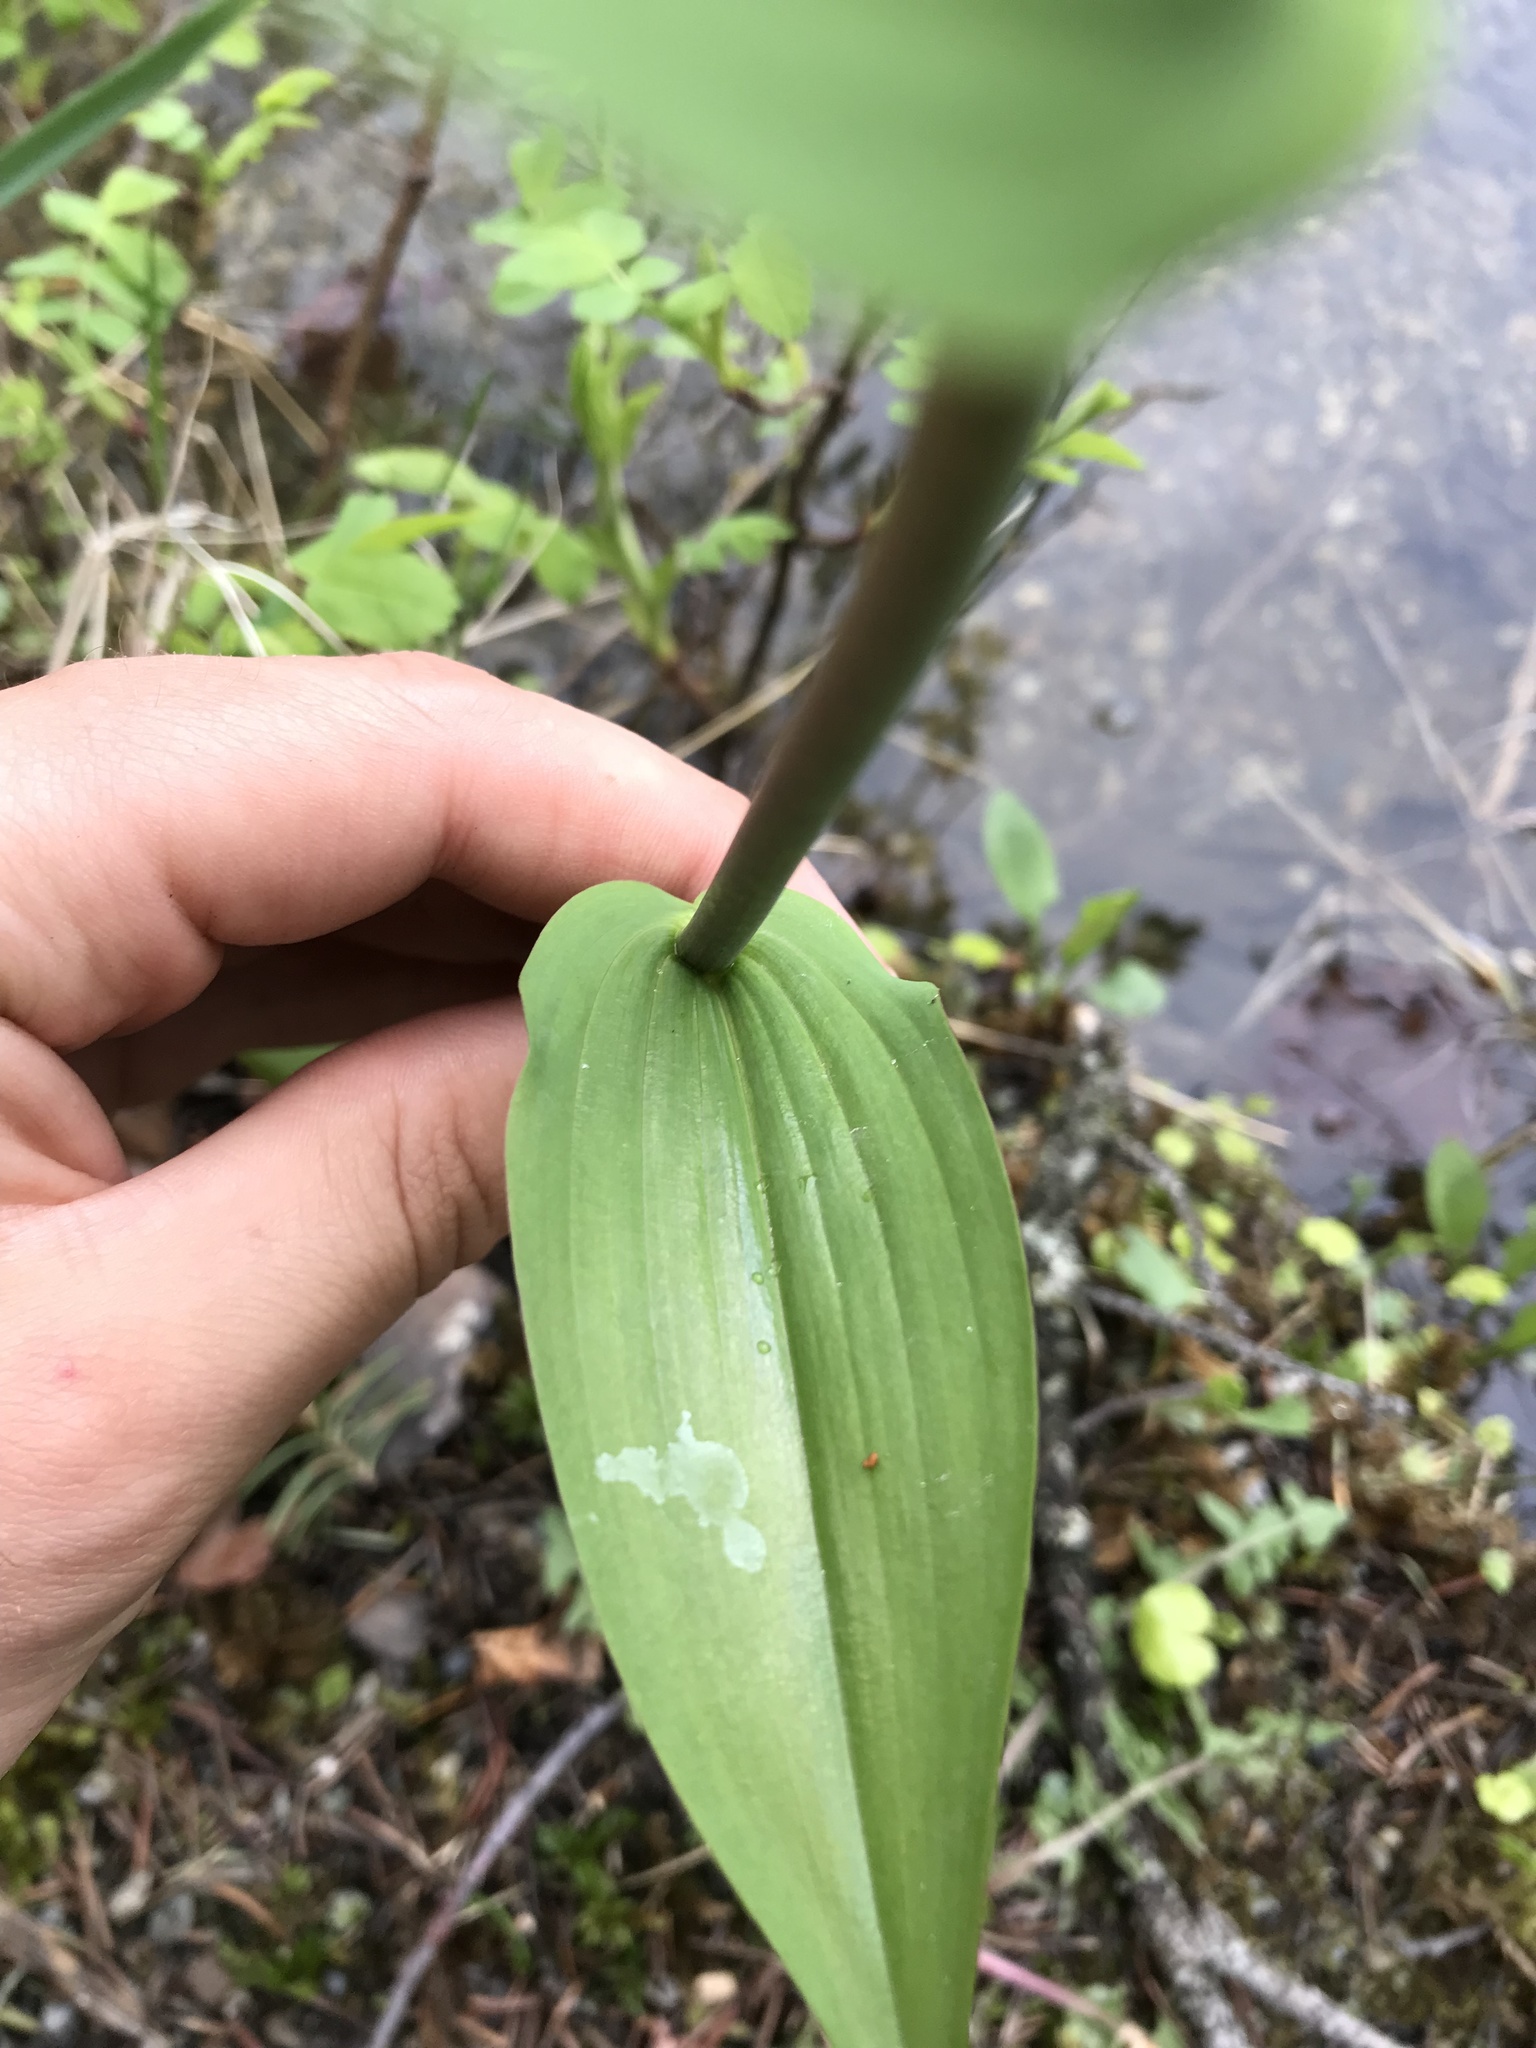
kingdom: Plantae
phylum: Tracheophyta
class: Liliopsida
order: Liliales
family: Liliaceae
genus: Streptopus
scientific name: Streptopus amplexifolius
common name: Clasp twisted stalk
